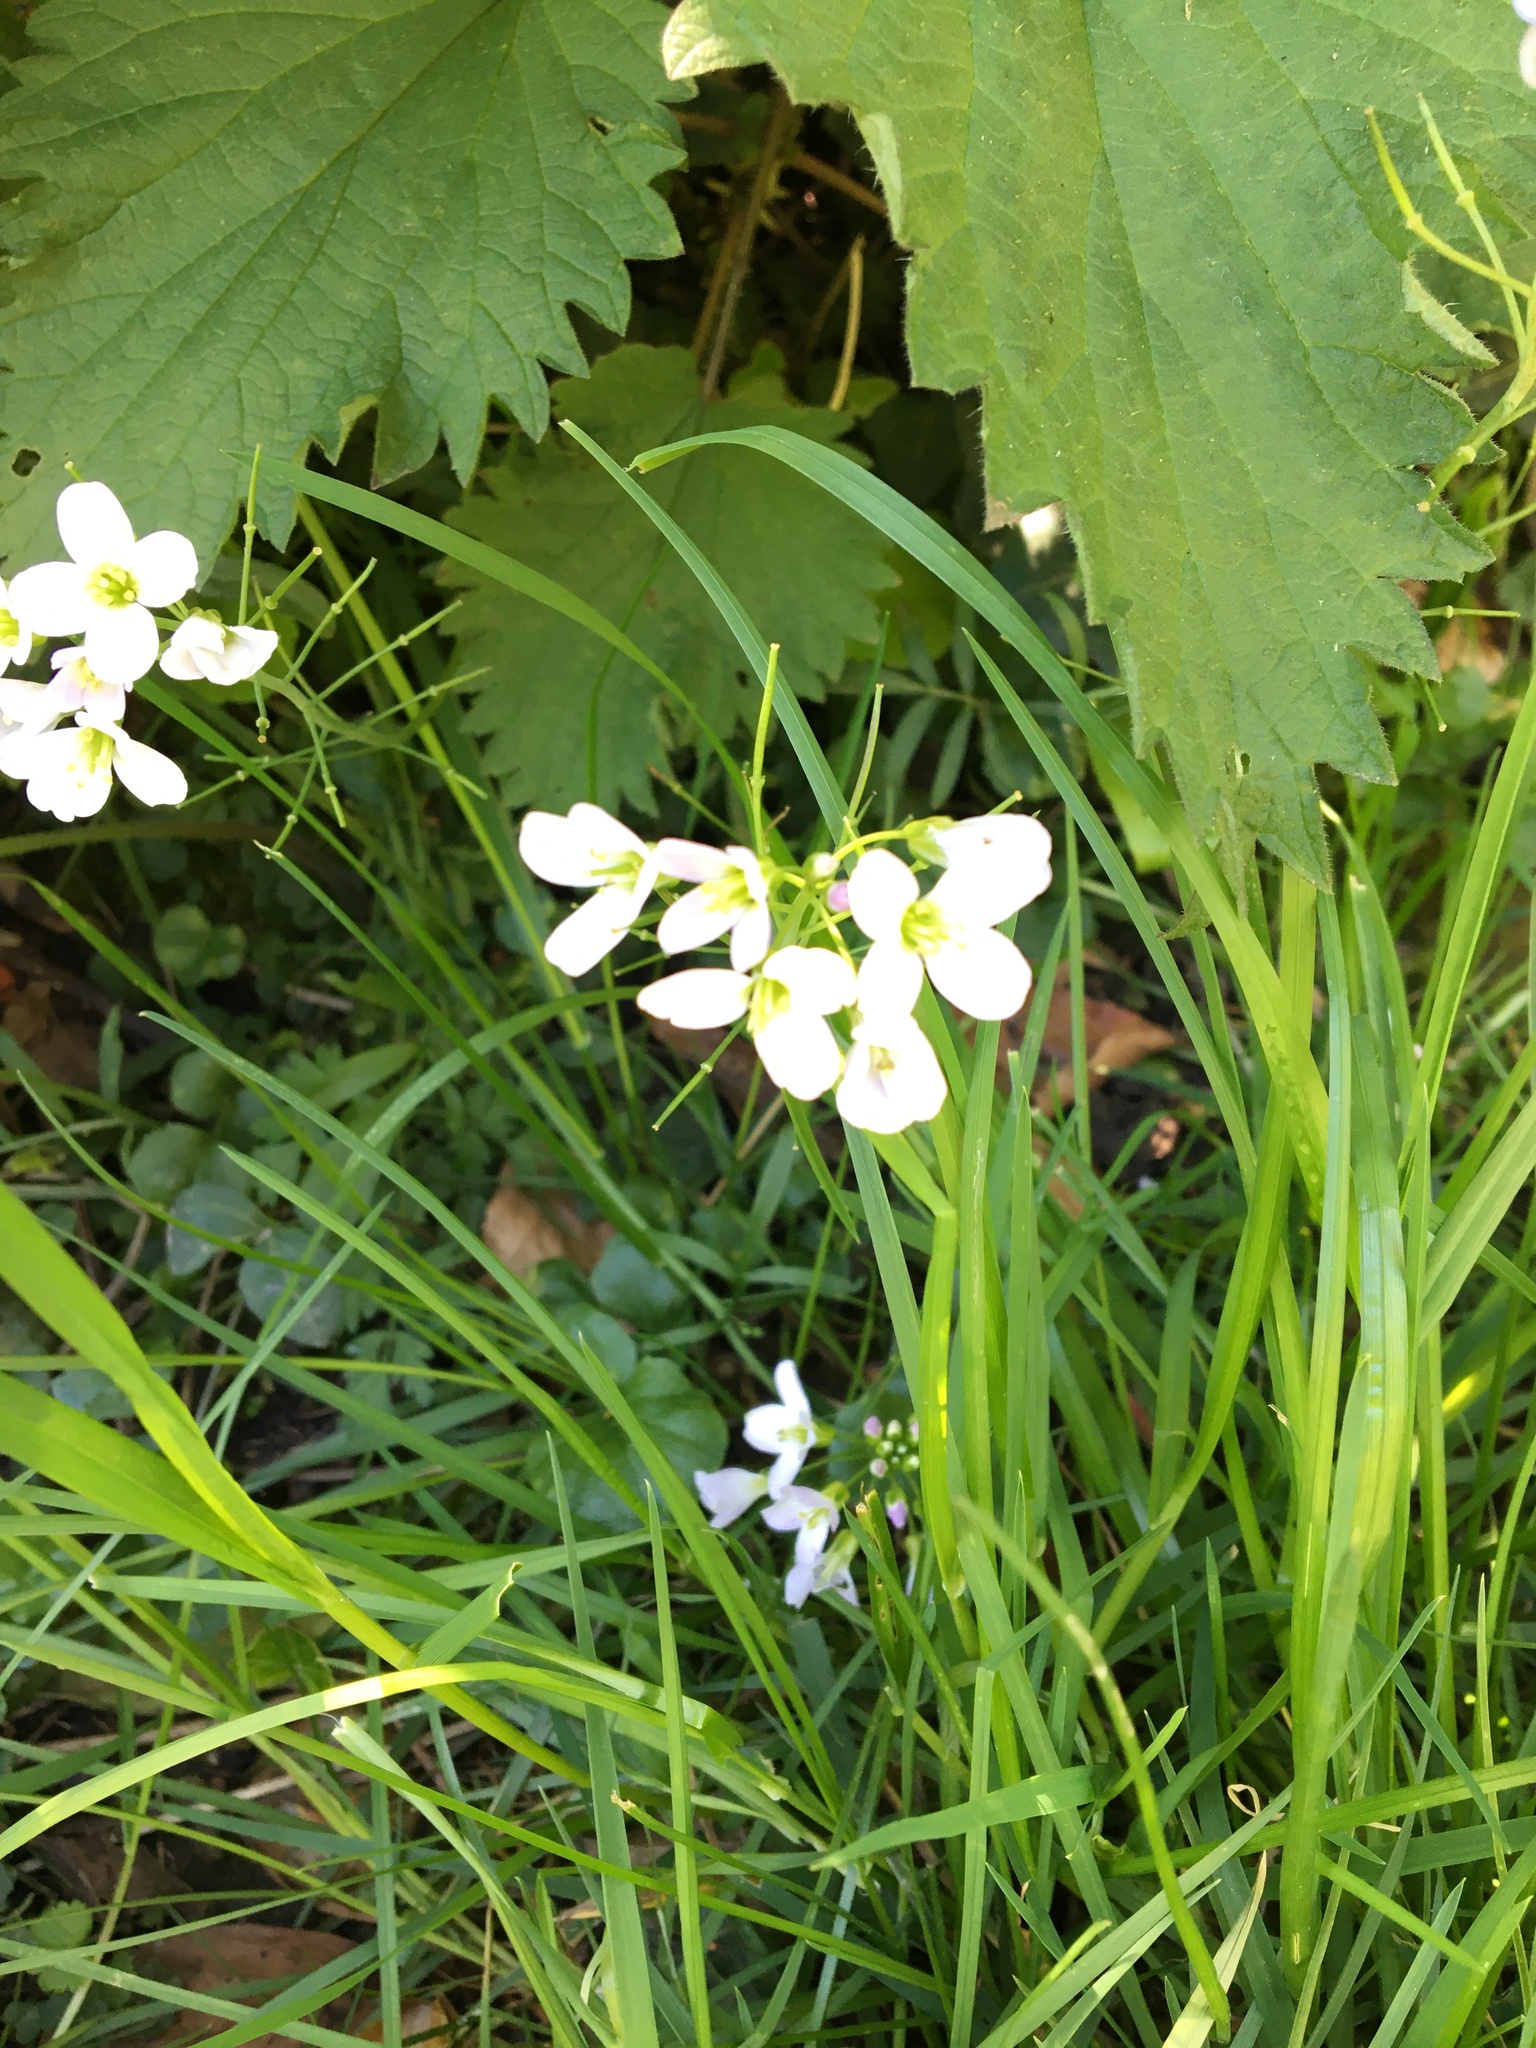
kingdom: Plantae
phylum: Tracheophyta
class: Magnoliopsida
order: Brassicales
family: Brassicaceae
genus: Cardamine
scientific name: Cardamine pratensis
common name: Cuckoo flower
